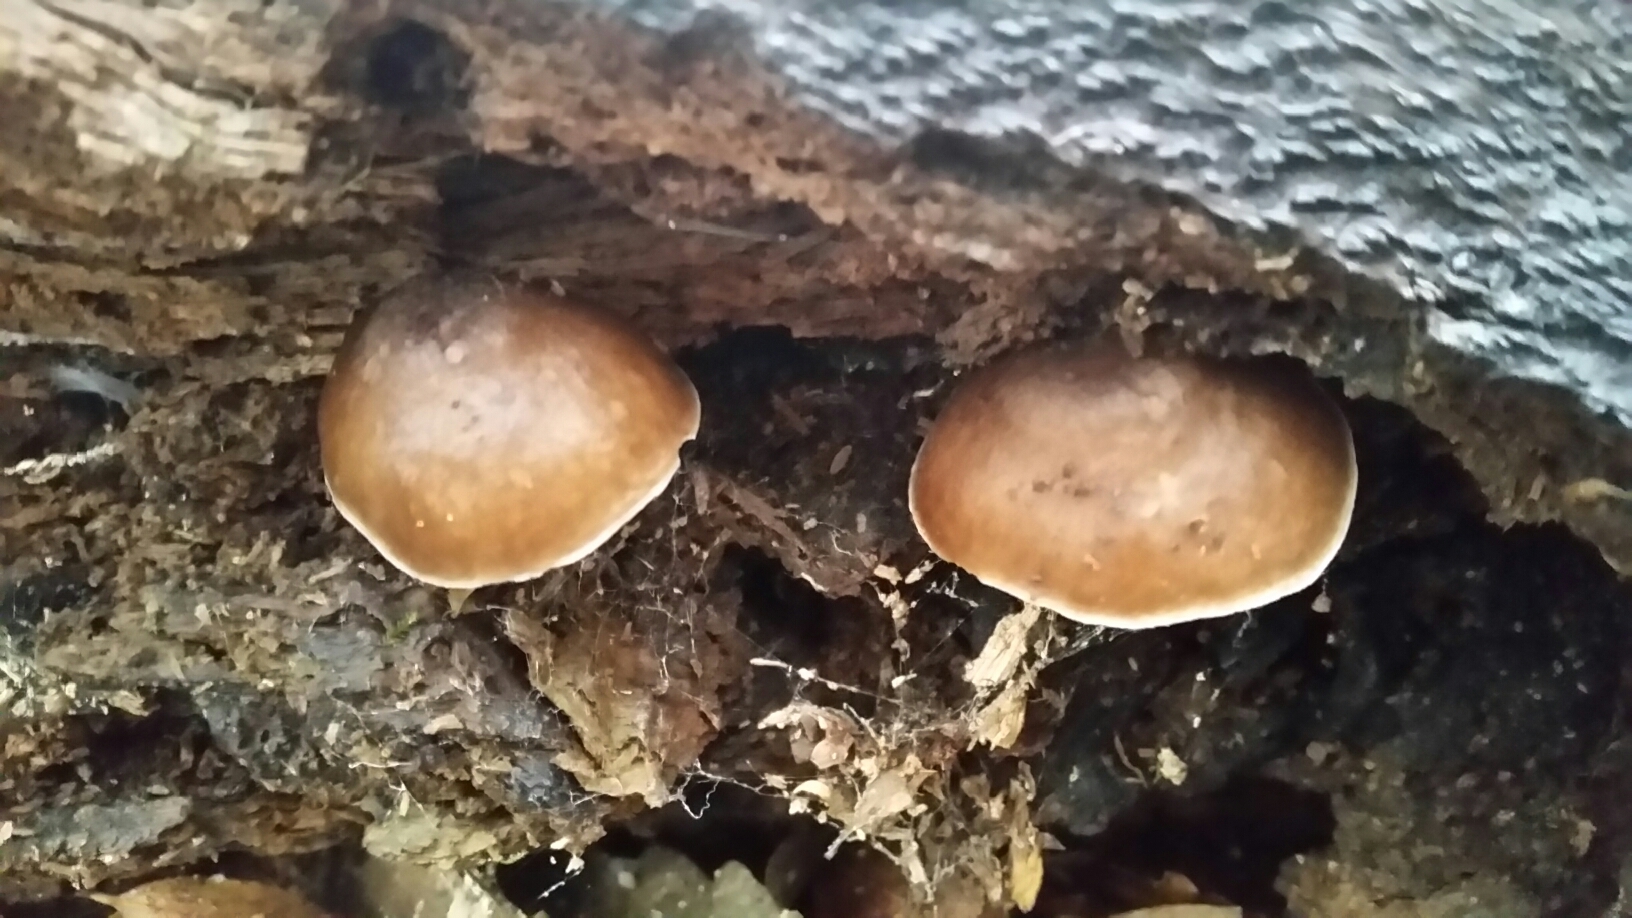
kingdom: Fungi
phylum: Basidiomycota
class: Agaricomycetes
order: Agaricales
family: Pluteaceae
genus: Pluteus
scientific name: Pluteus exilis
